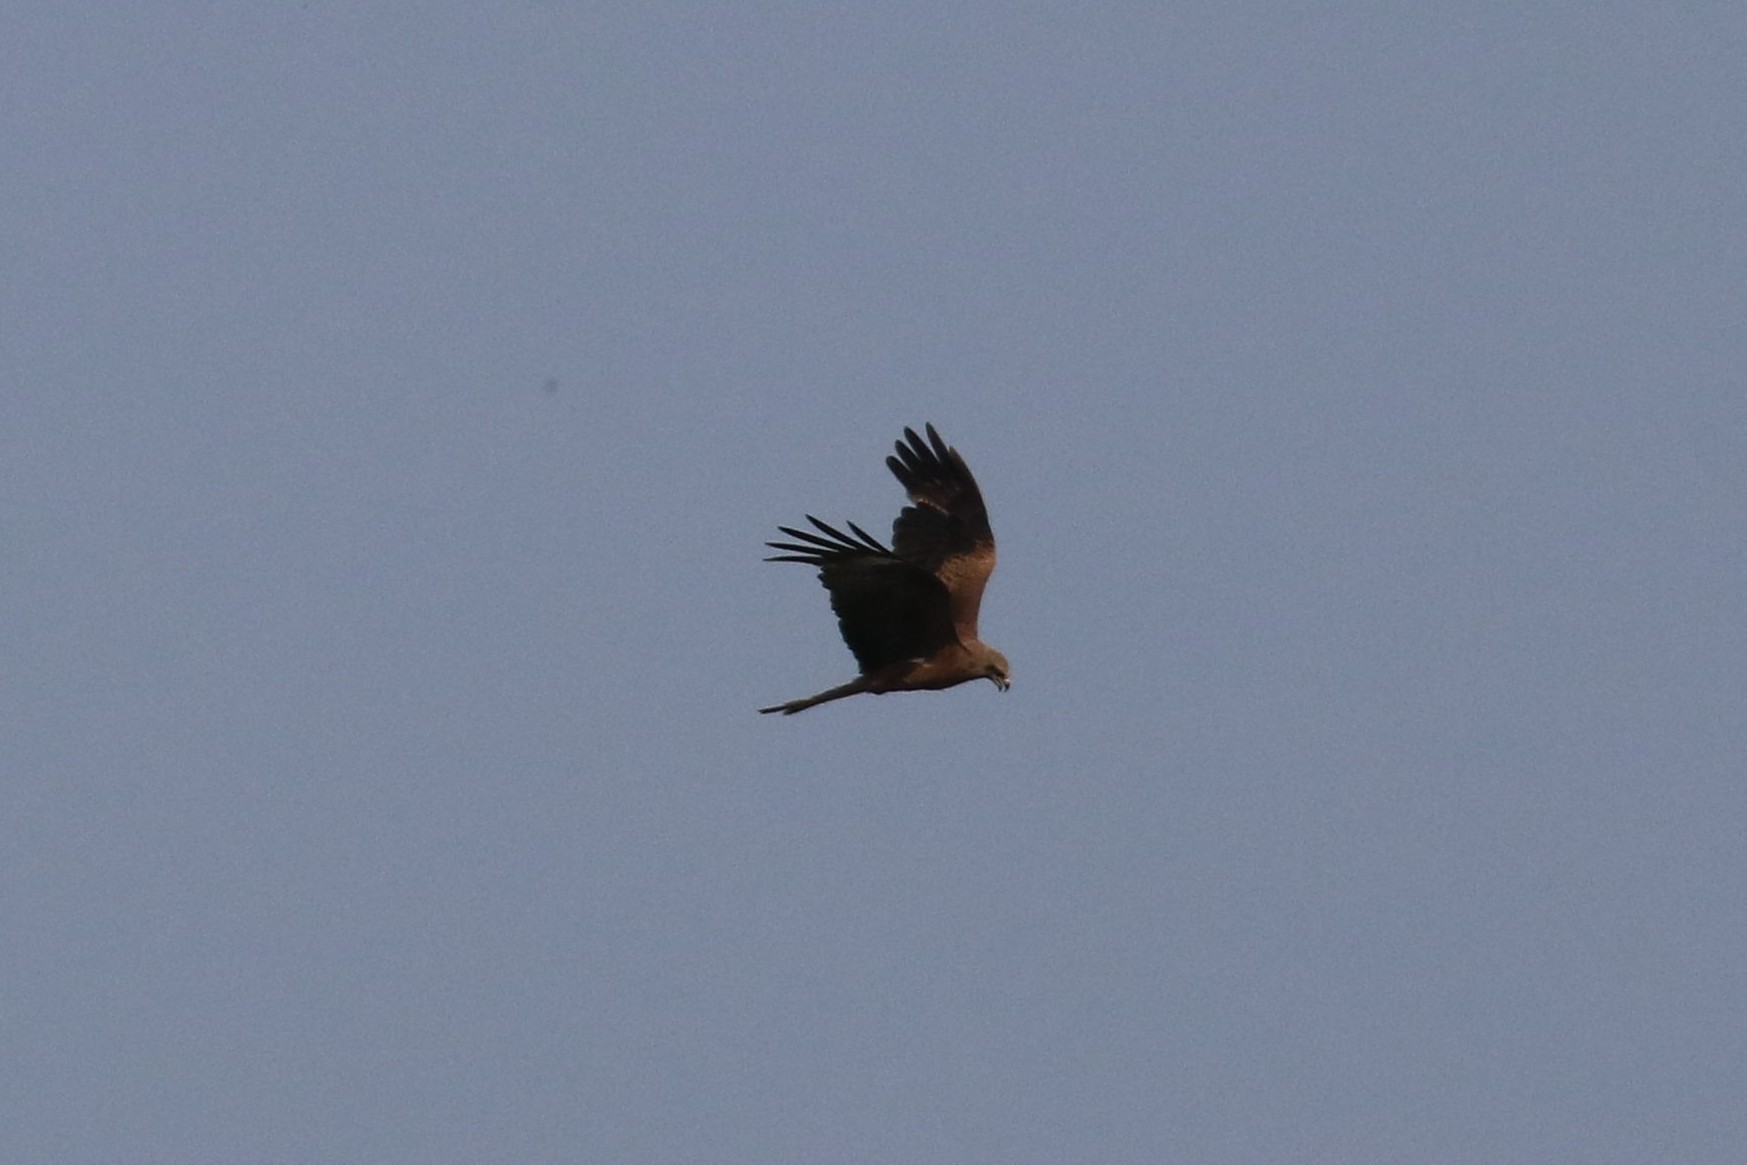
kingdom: Animalia
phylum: Chordata
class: Aves
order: Accipitriformes
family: Accipitridae
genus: Milvus
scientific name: Milvus migrans
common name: Black kite
